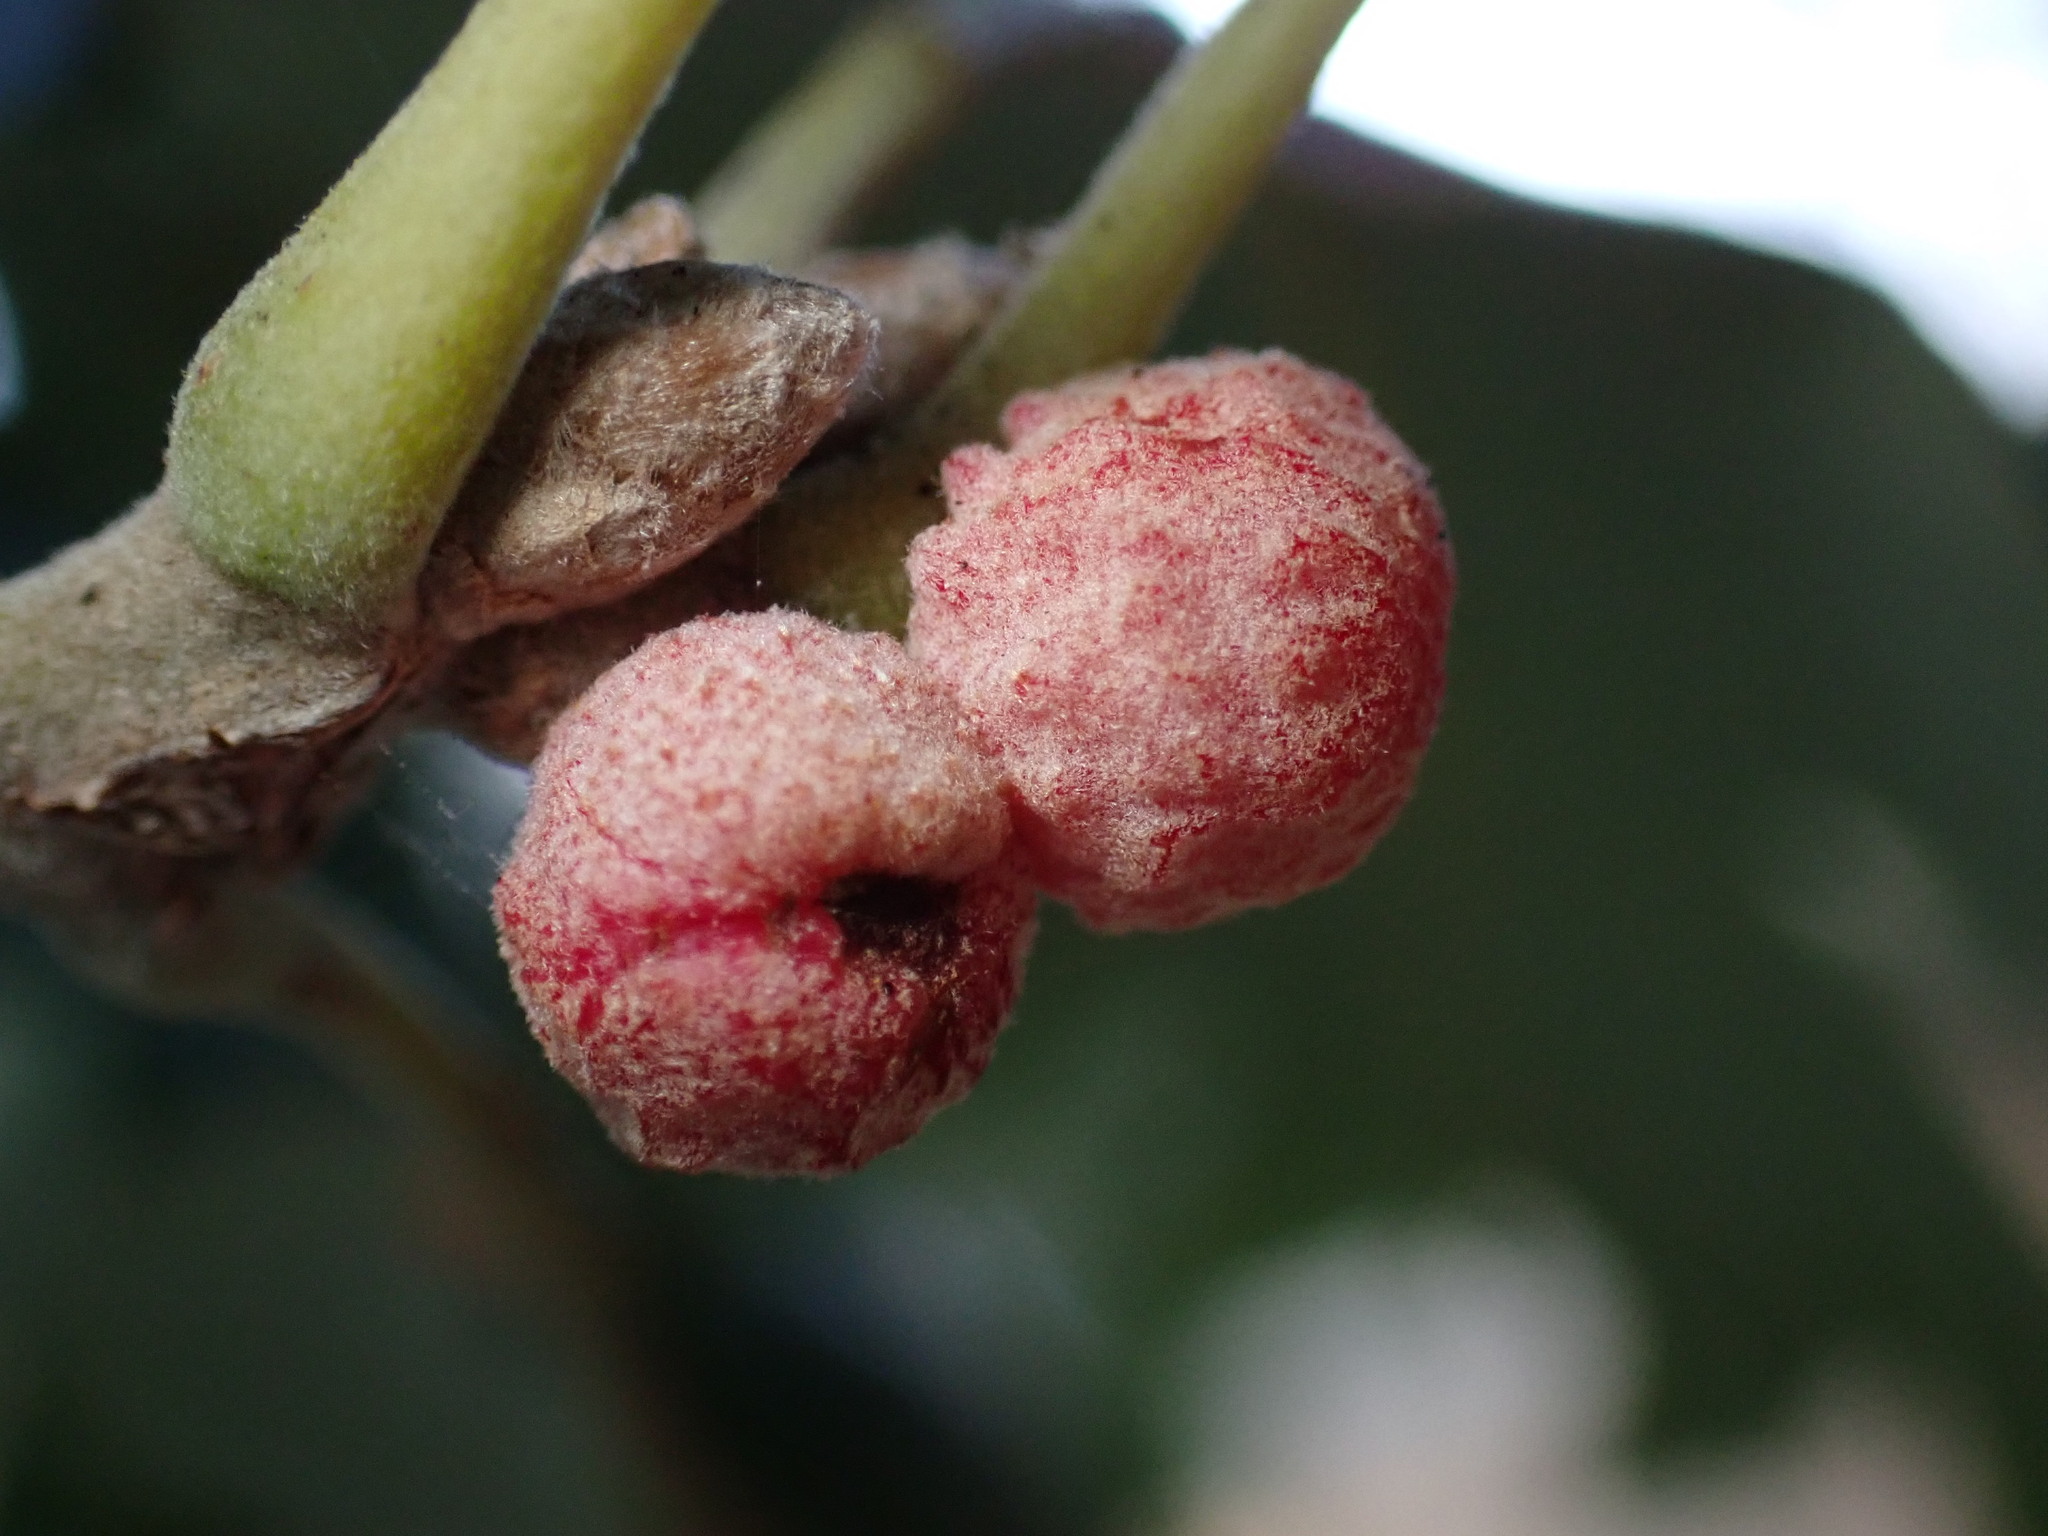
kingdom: Animalia
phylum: Arthropoda
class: Insecta
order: Hymenoptera
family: Cynipidae
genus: Cynips
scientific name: Cynips conspicua
